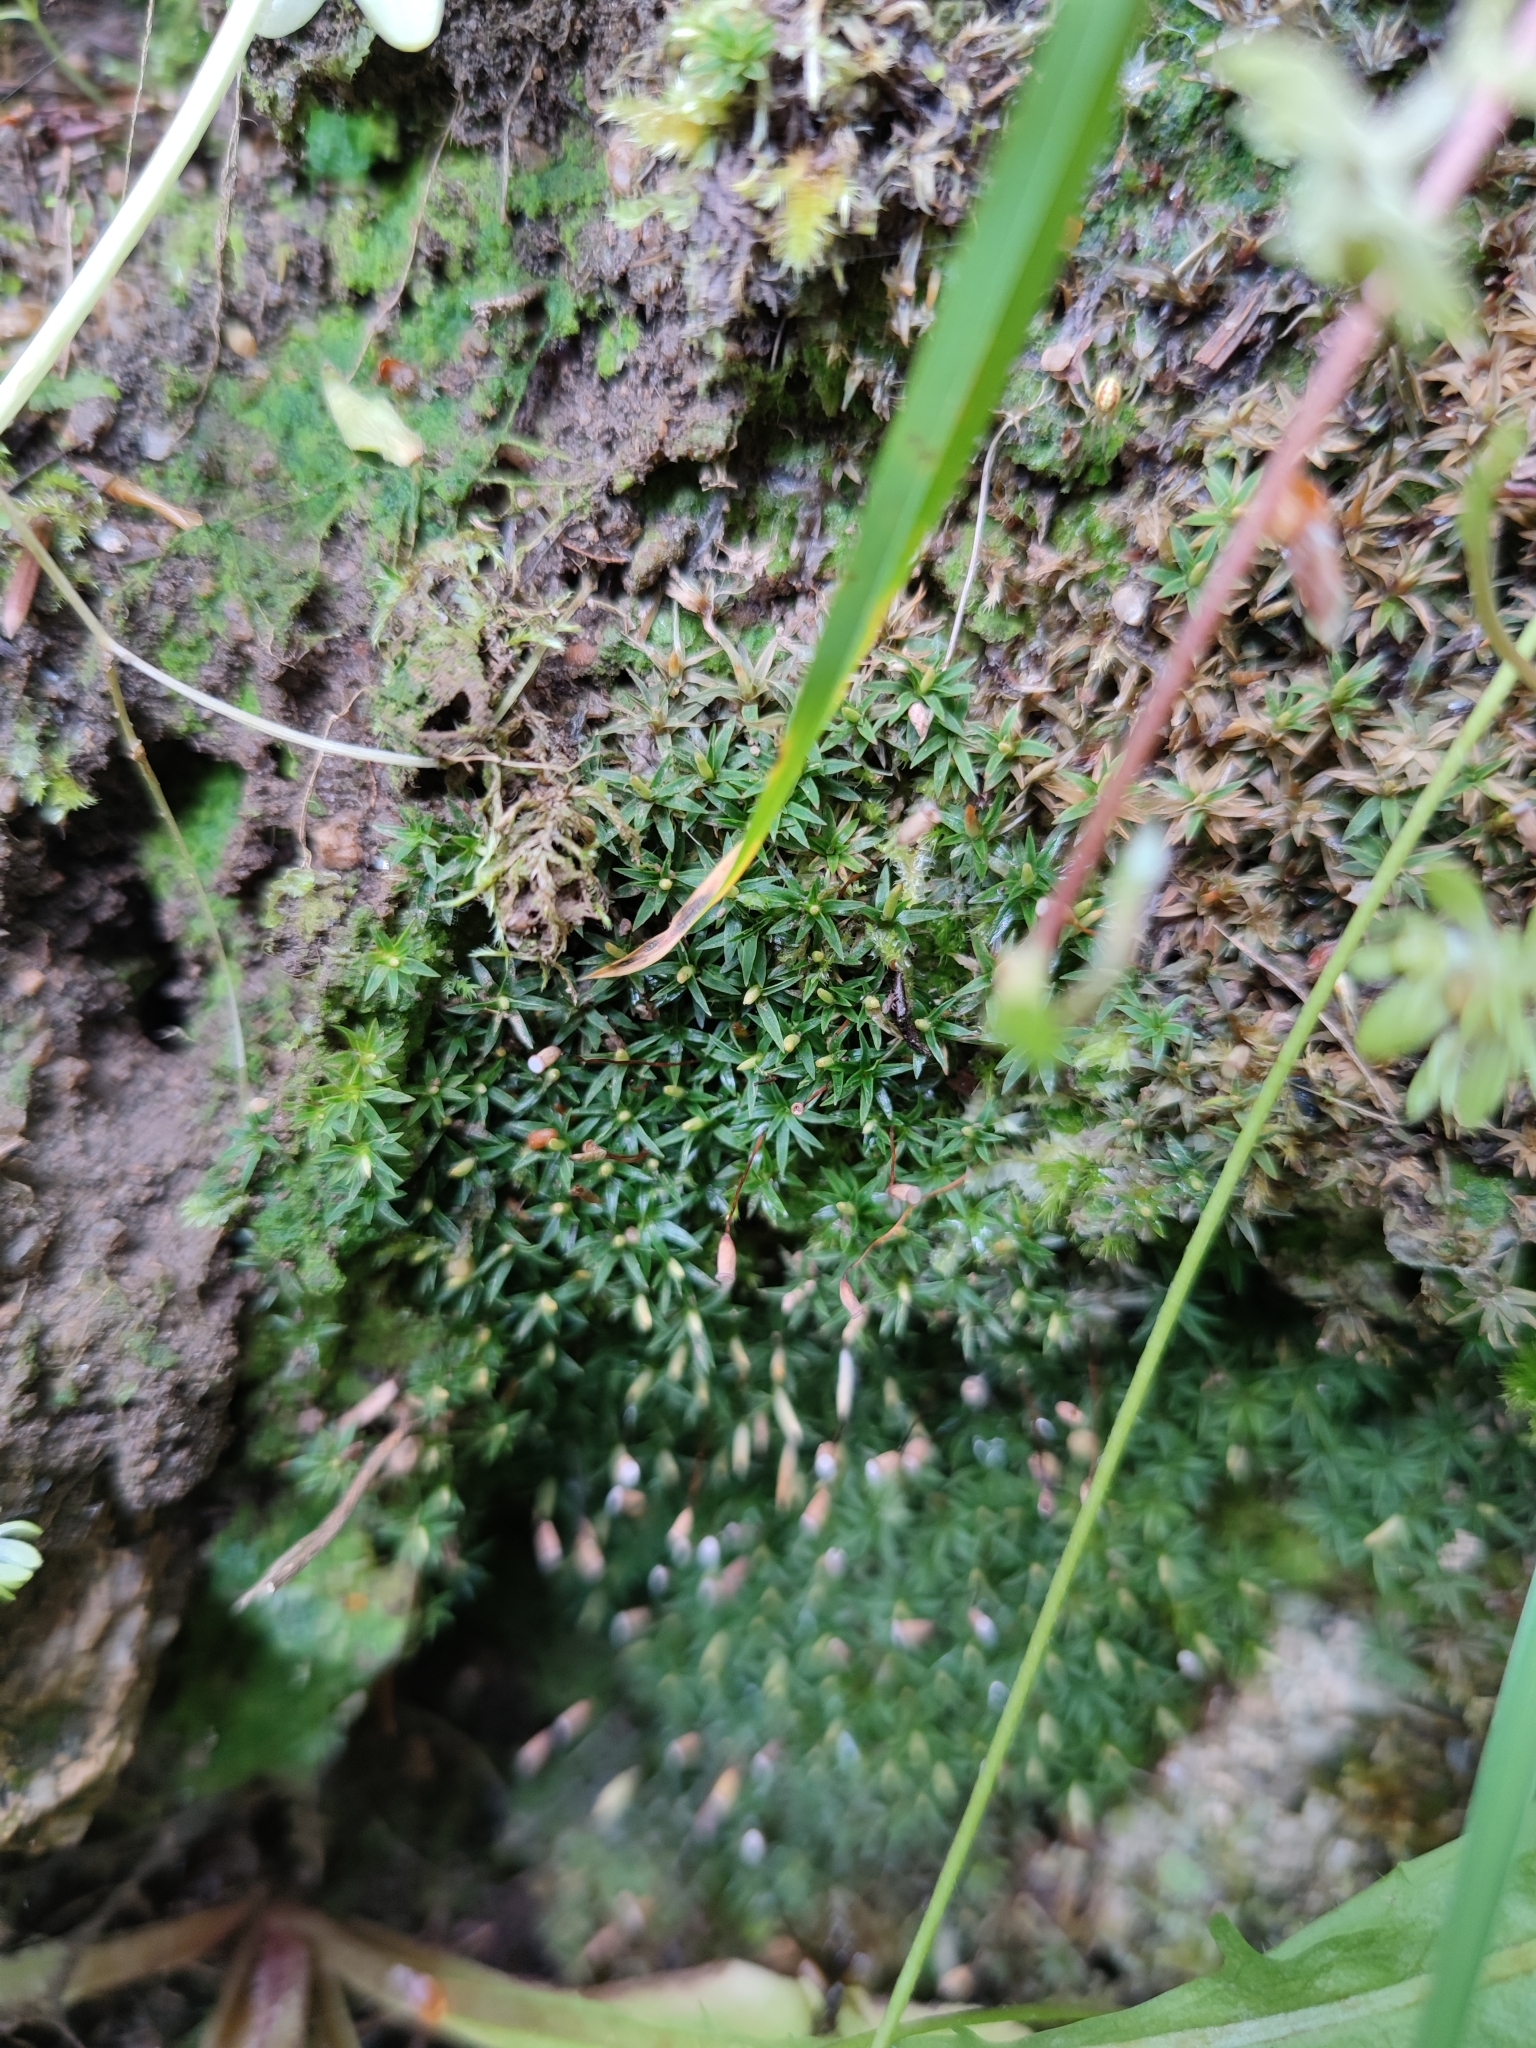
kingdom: Plantae
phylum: Bryophyta
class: Polytrichopsida
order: Polytrichales
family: Polytrichaceae
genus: Pogonatum
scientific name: Pogonatum aloides
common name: Aloe haircap
